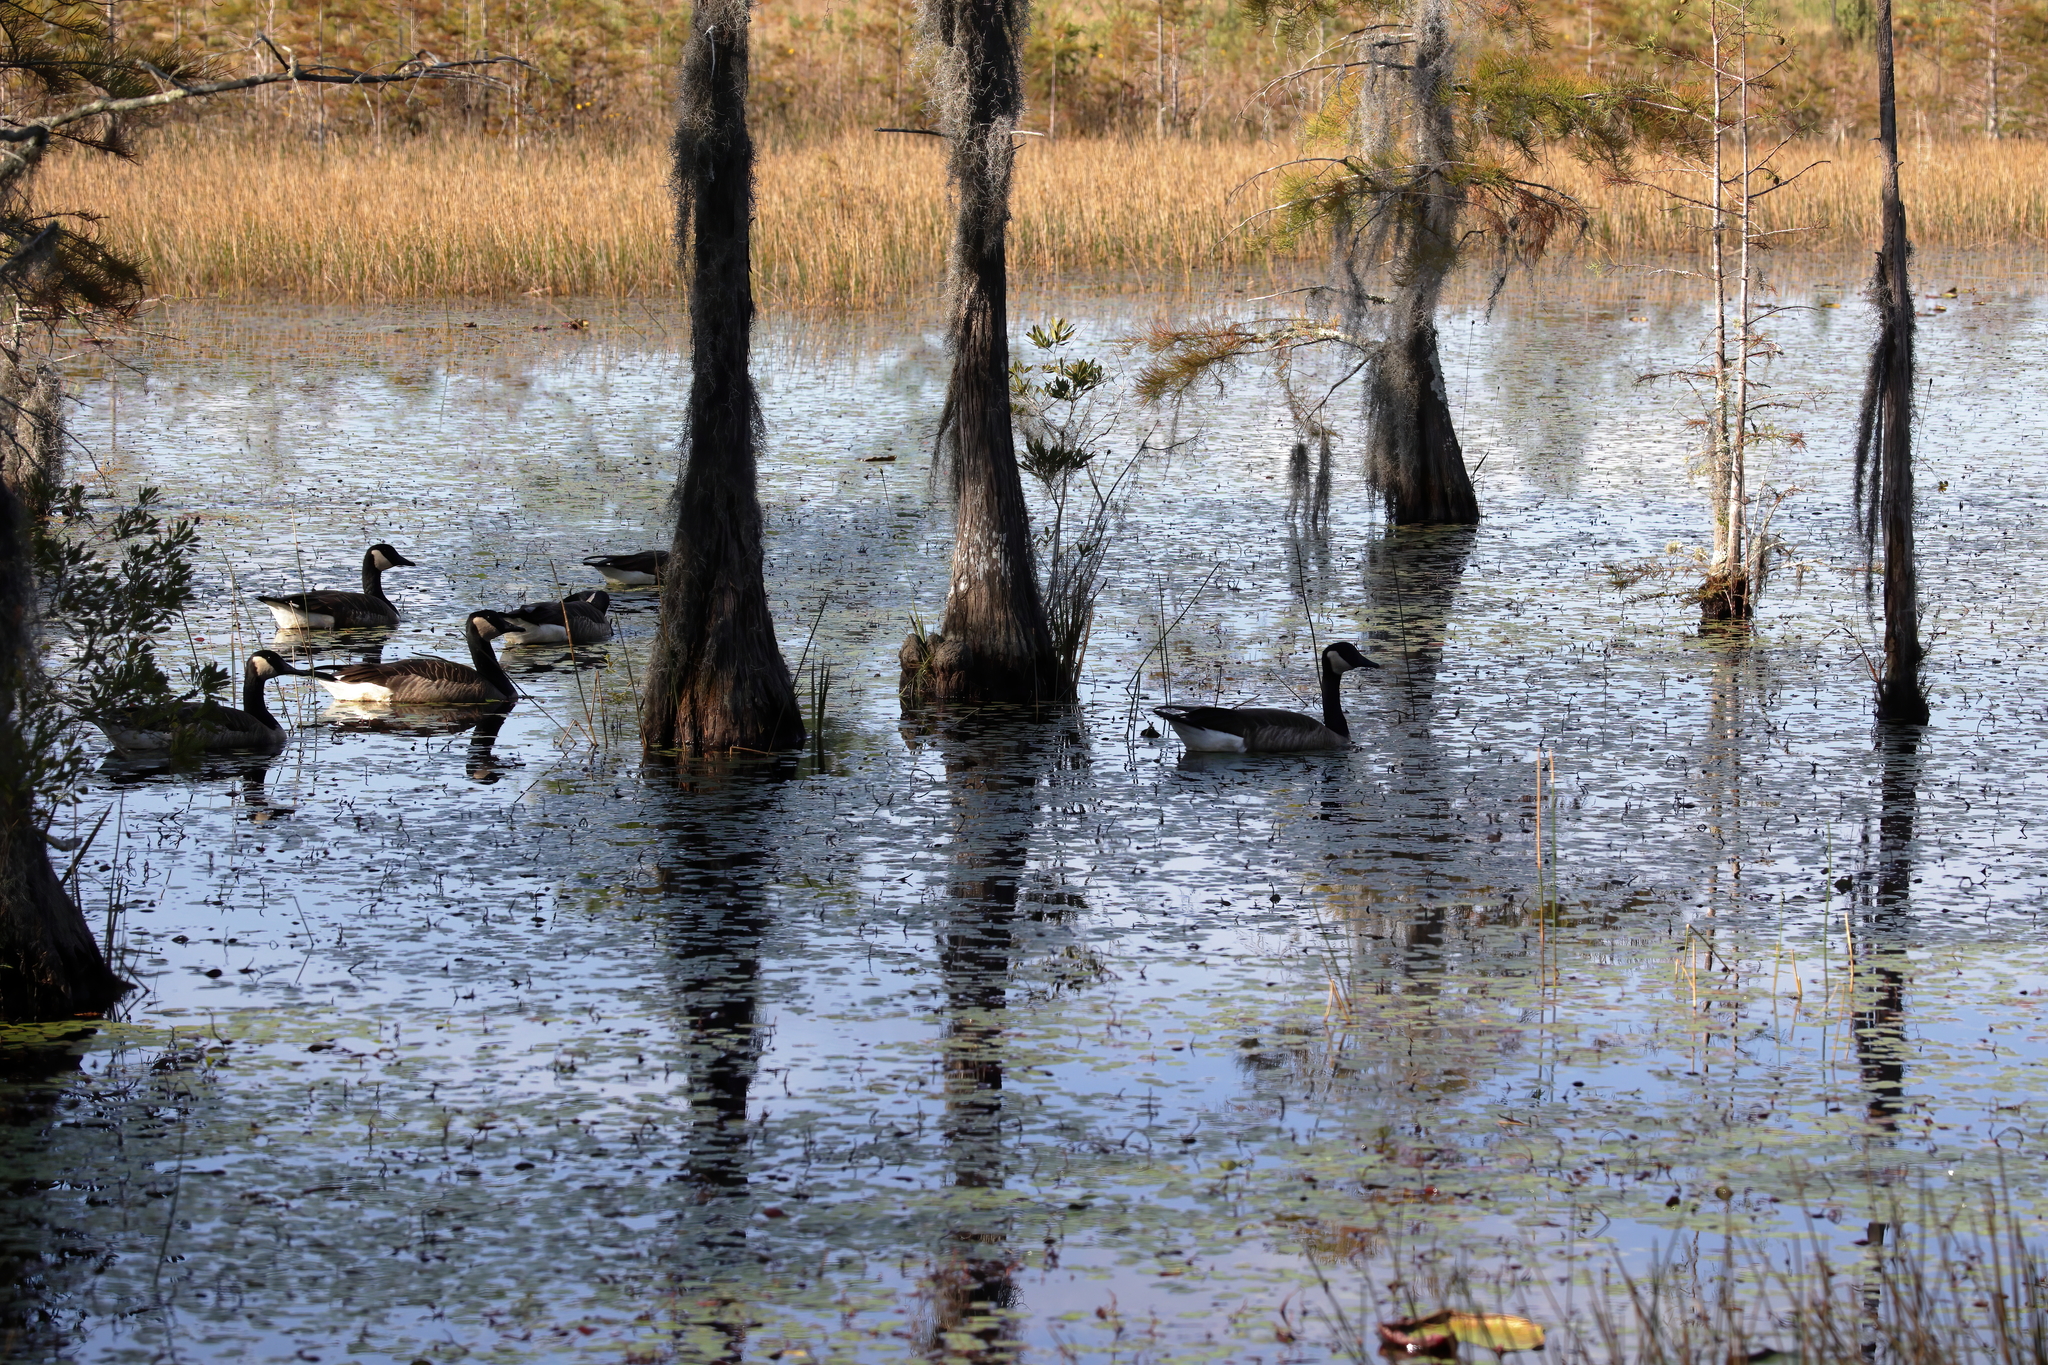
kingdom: Animalia
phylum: Chordata
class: Aves
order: Anseriformes
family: Anatidae
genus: Branta
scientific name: Branta canadensis
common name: Canada goose
